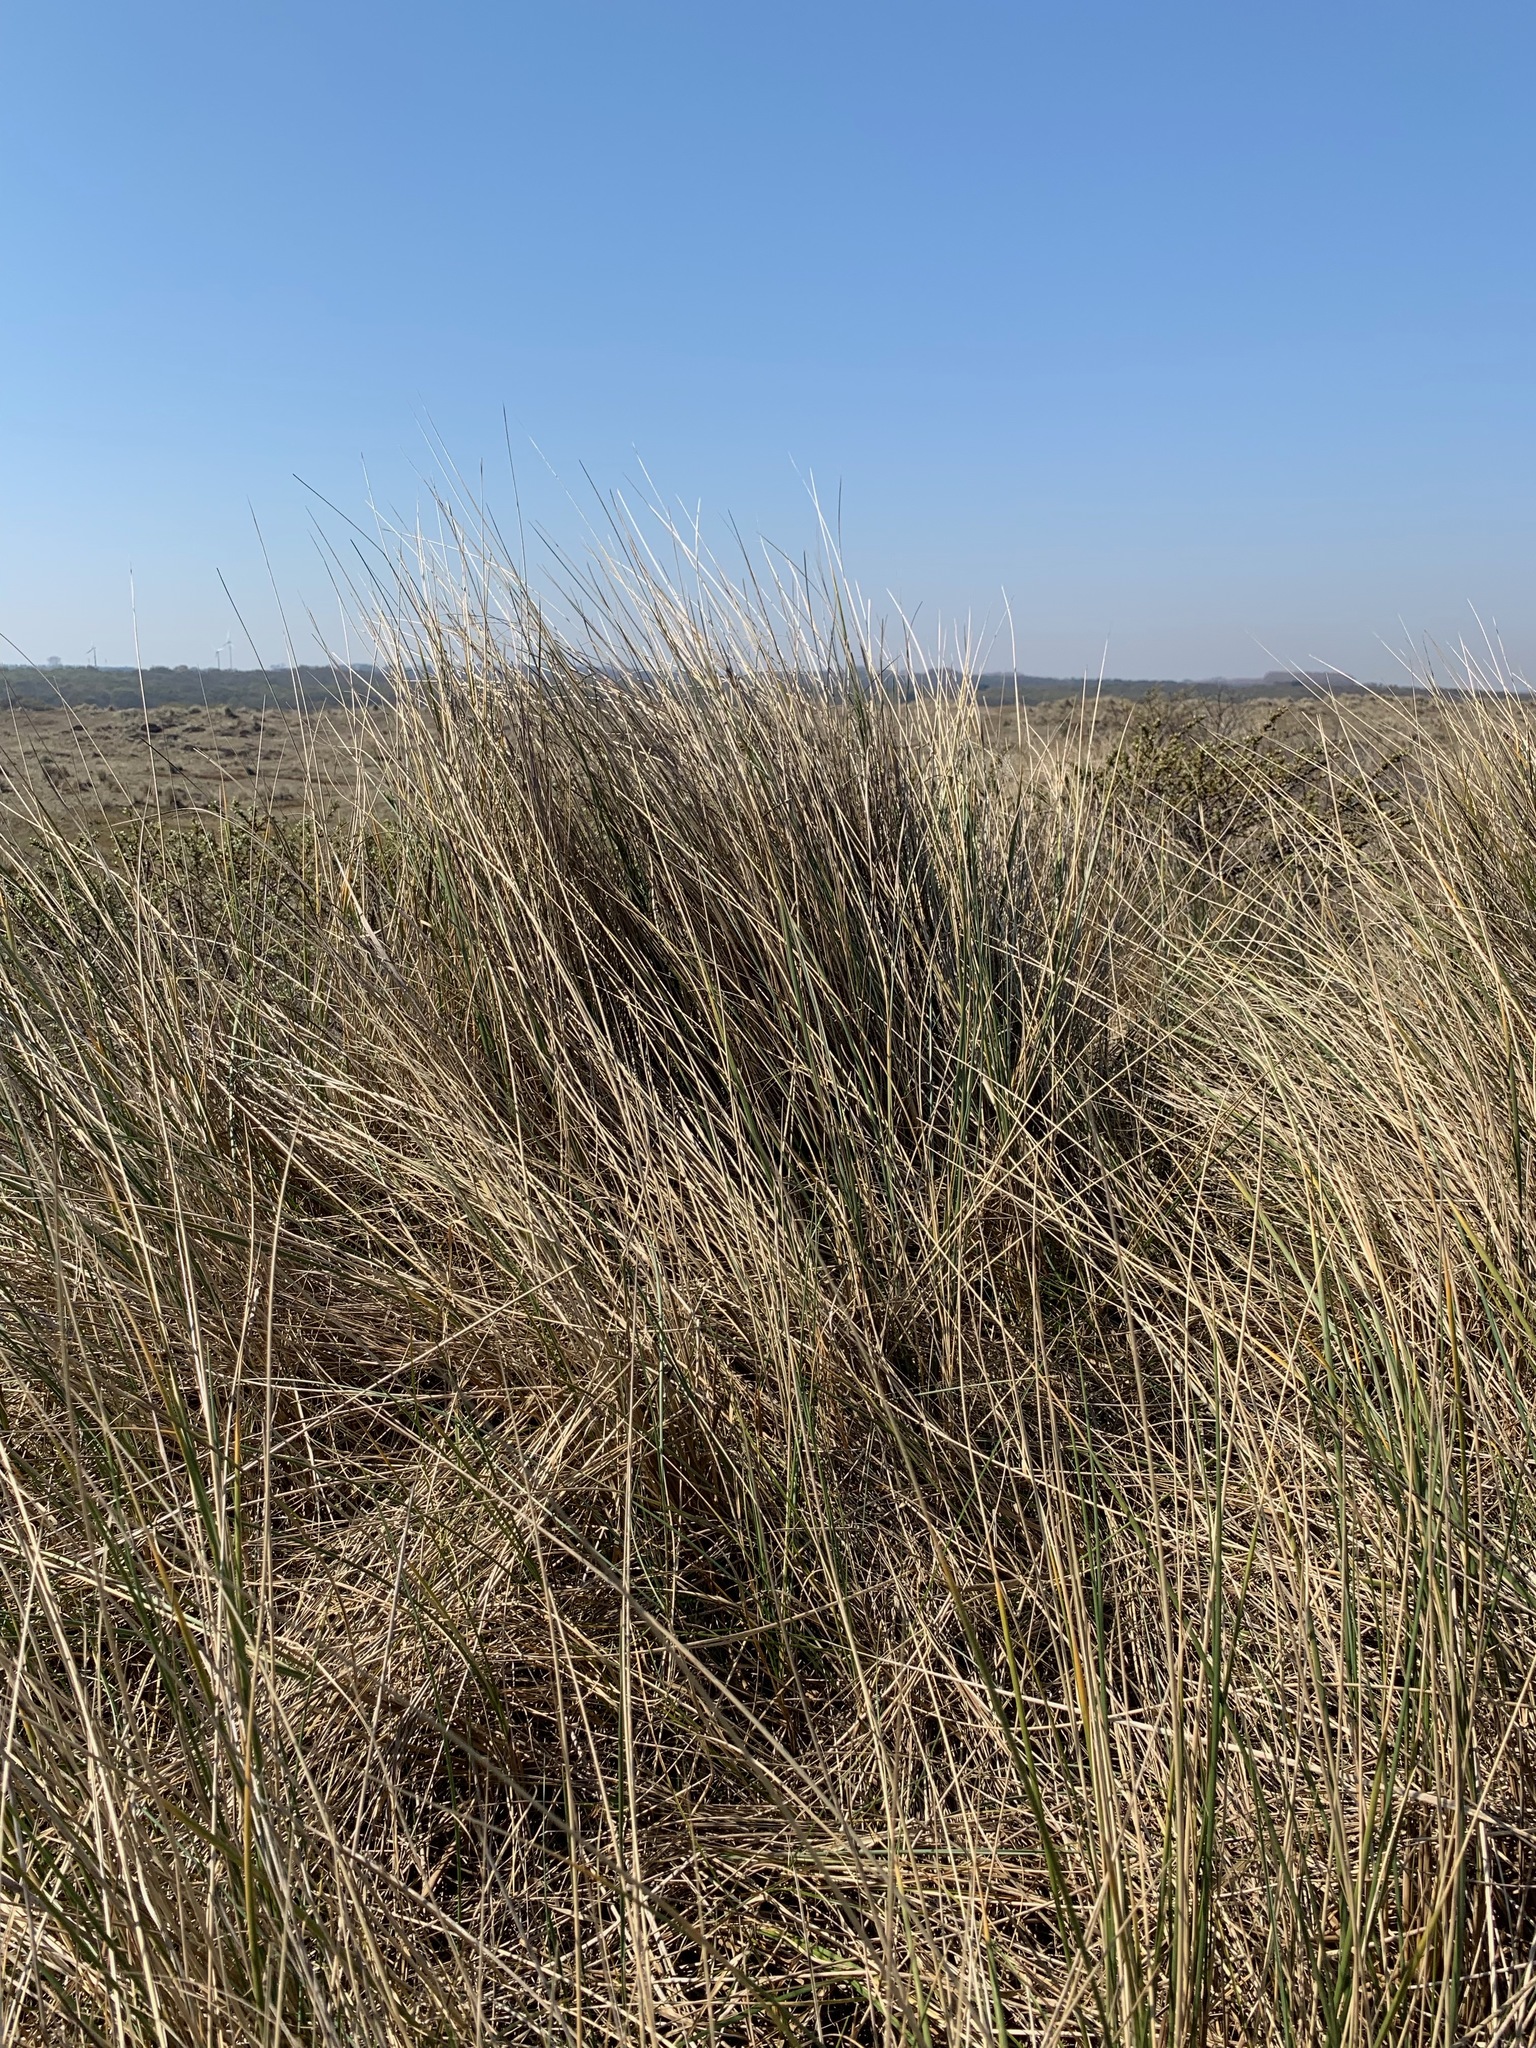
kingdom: Plantae
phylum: Tracheophyta
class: Liliopsida
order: Poales
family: Poaceae
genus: Calamagrostis
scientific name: Calamagrostis arenaria
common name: European beachgrass
